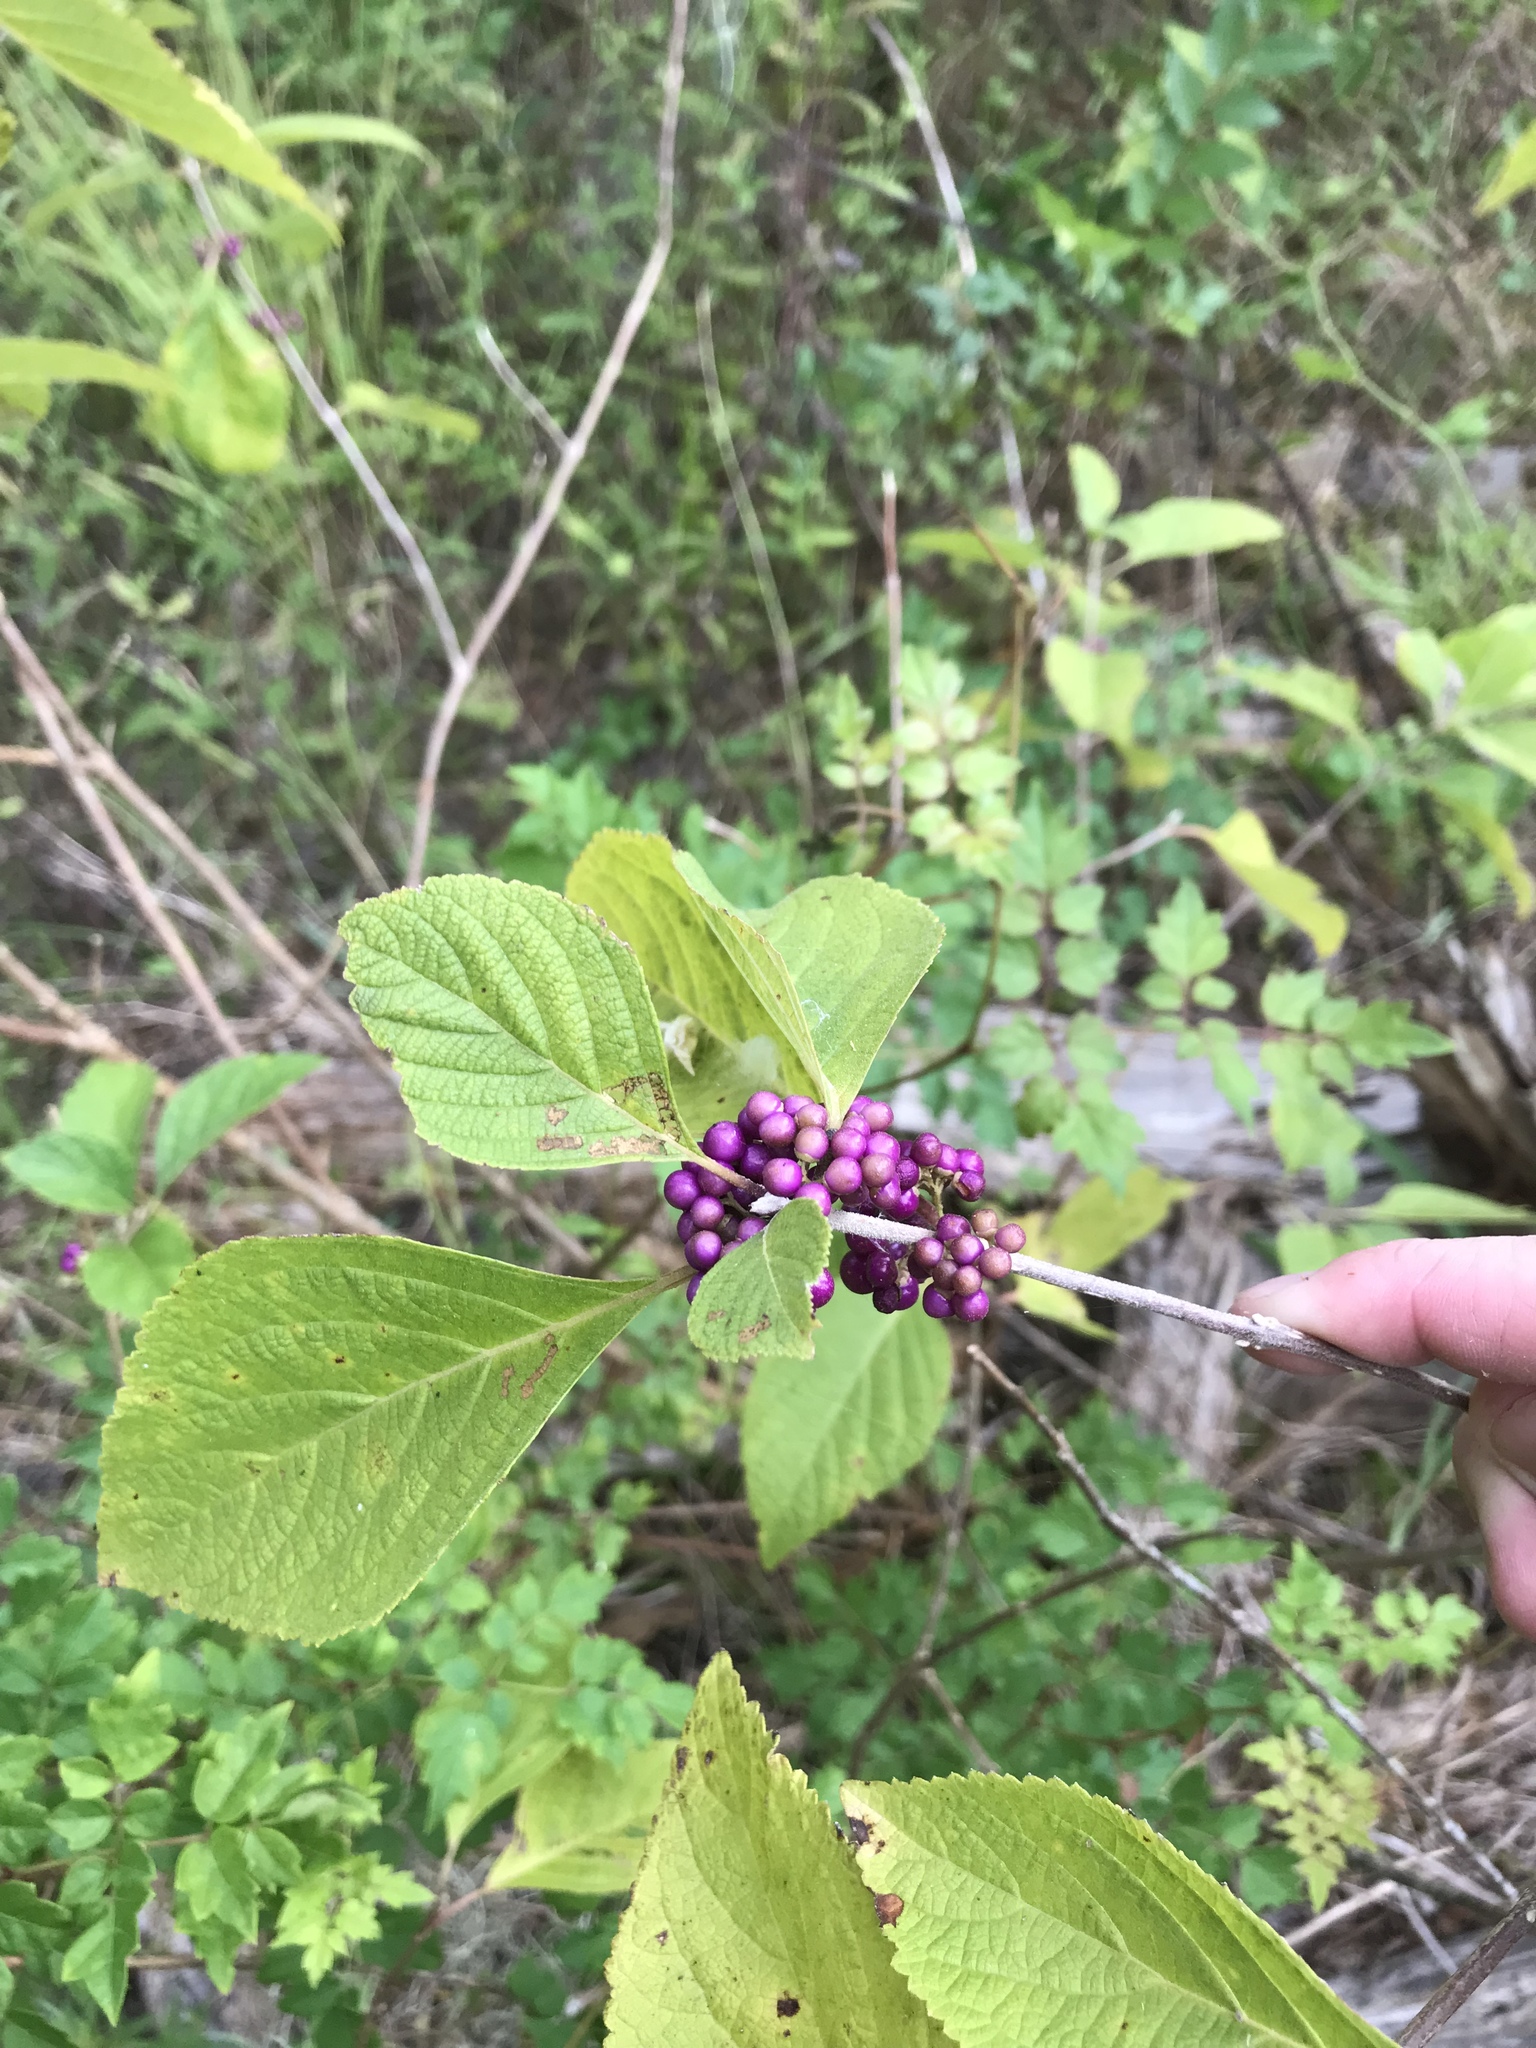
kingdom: Plantae
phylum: Tracheophyta
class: Magnoliopsida
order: Lamiales
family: Lamiaceae
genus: Callicarpa
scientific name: Callicarpa americana
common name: American beautyberry
